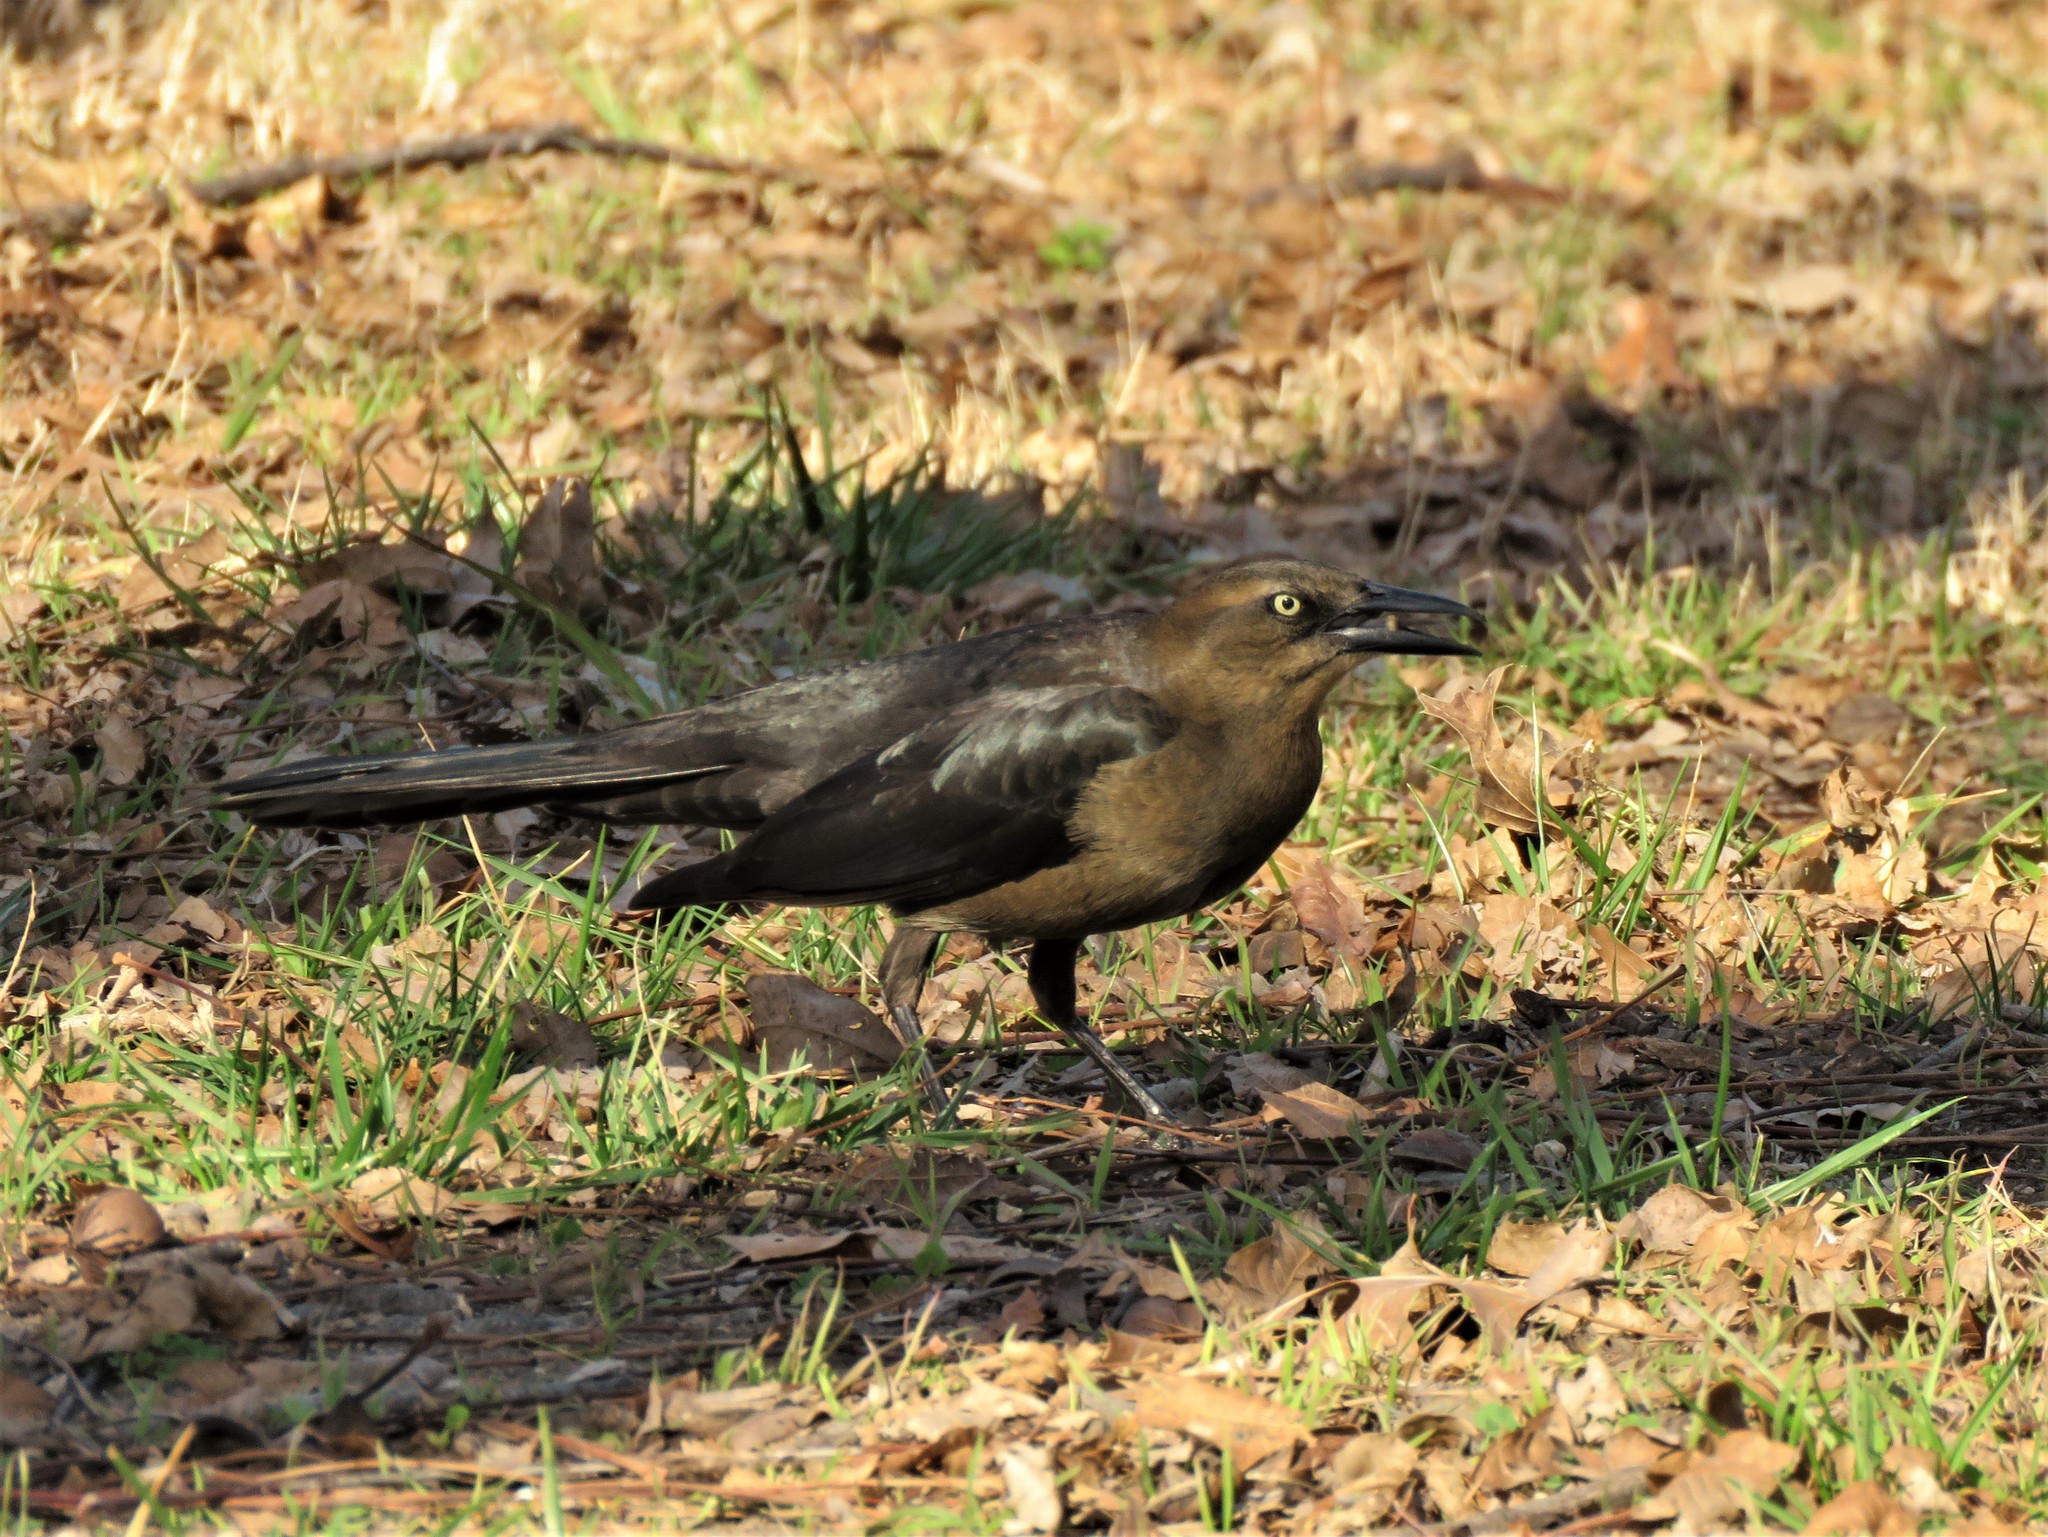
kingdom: Animalia
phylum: Chordata
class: Aves
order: Passeriformes
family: Icteridae
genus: Quiscalus
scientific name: Quiscalus mexicanus
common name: Great-tailed grackle
